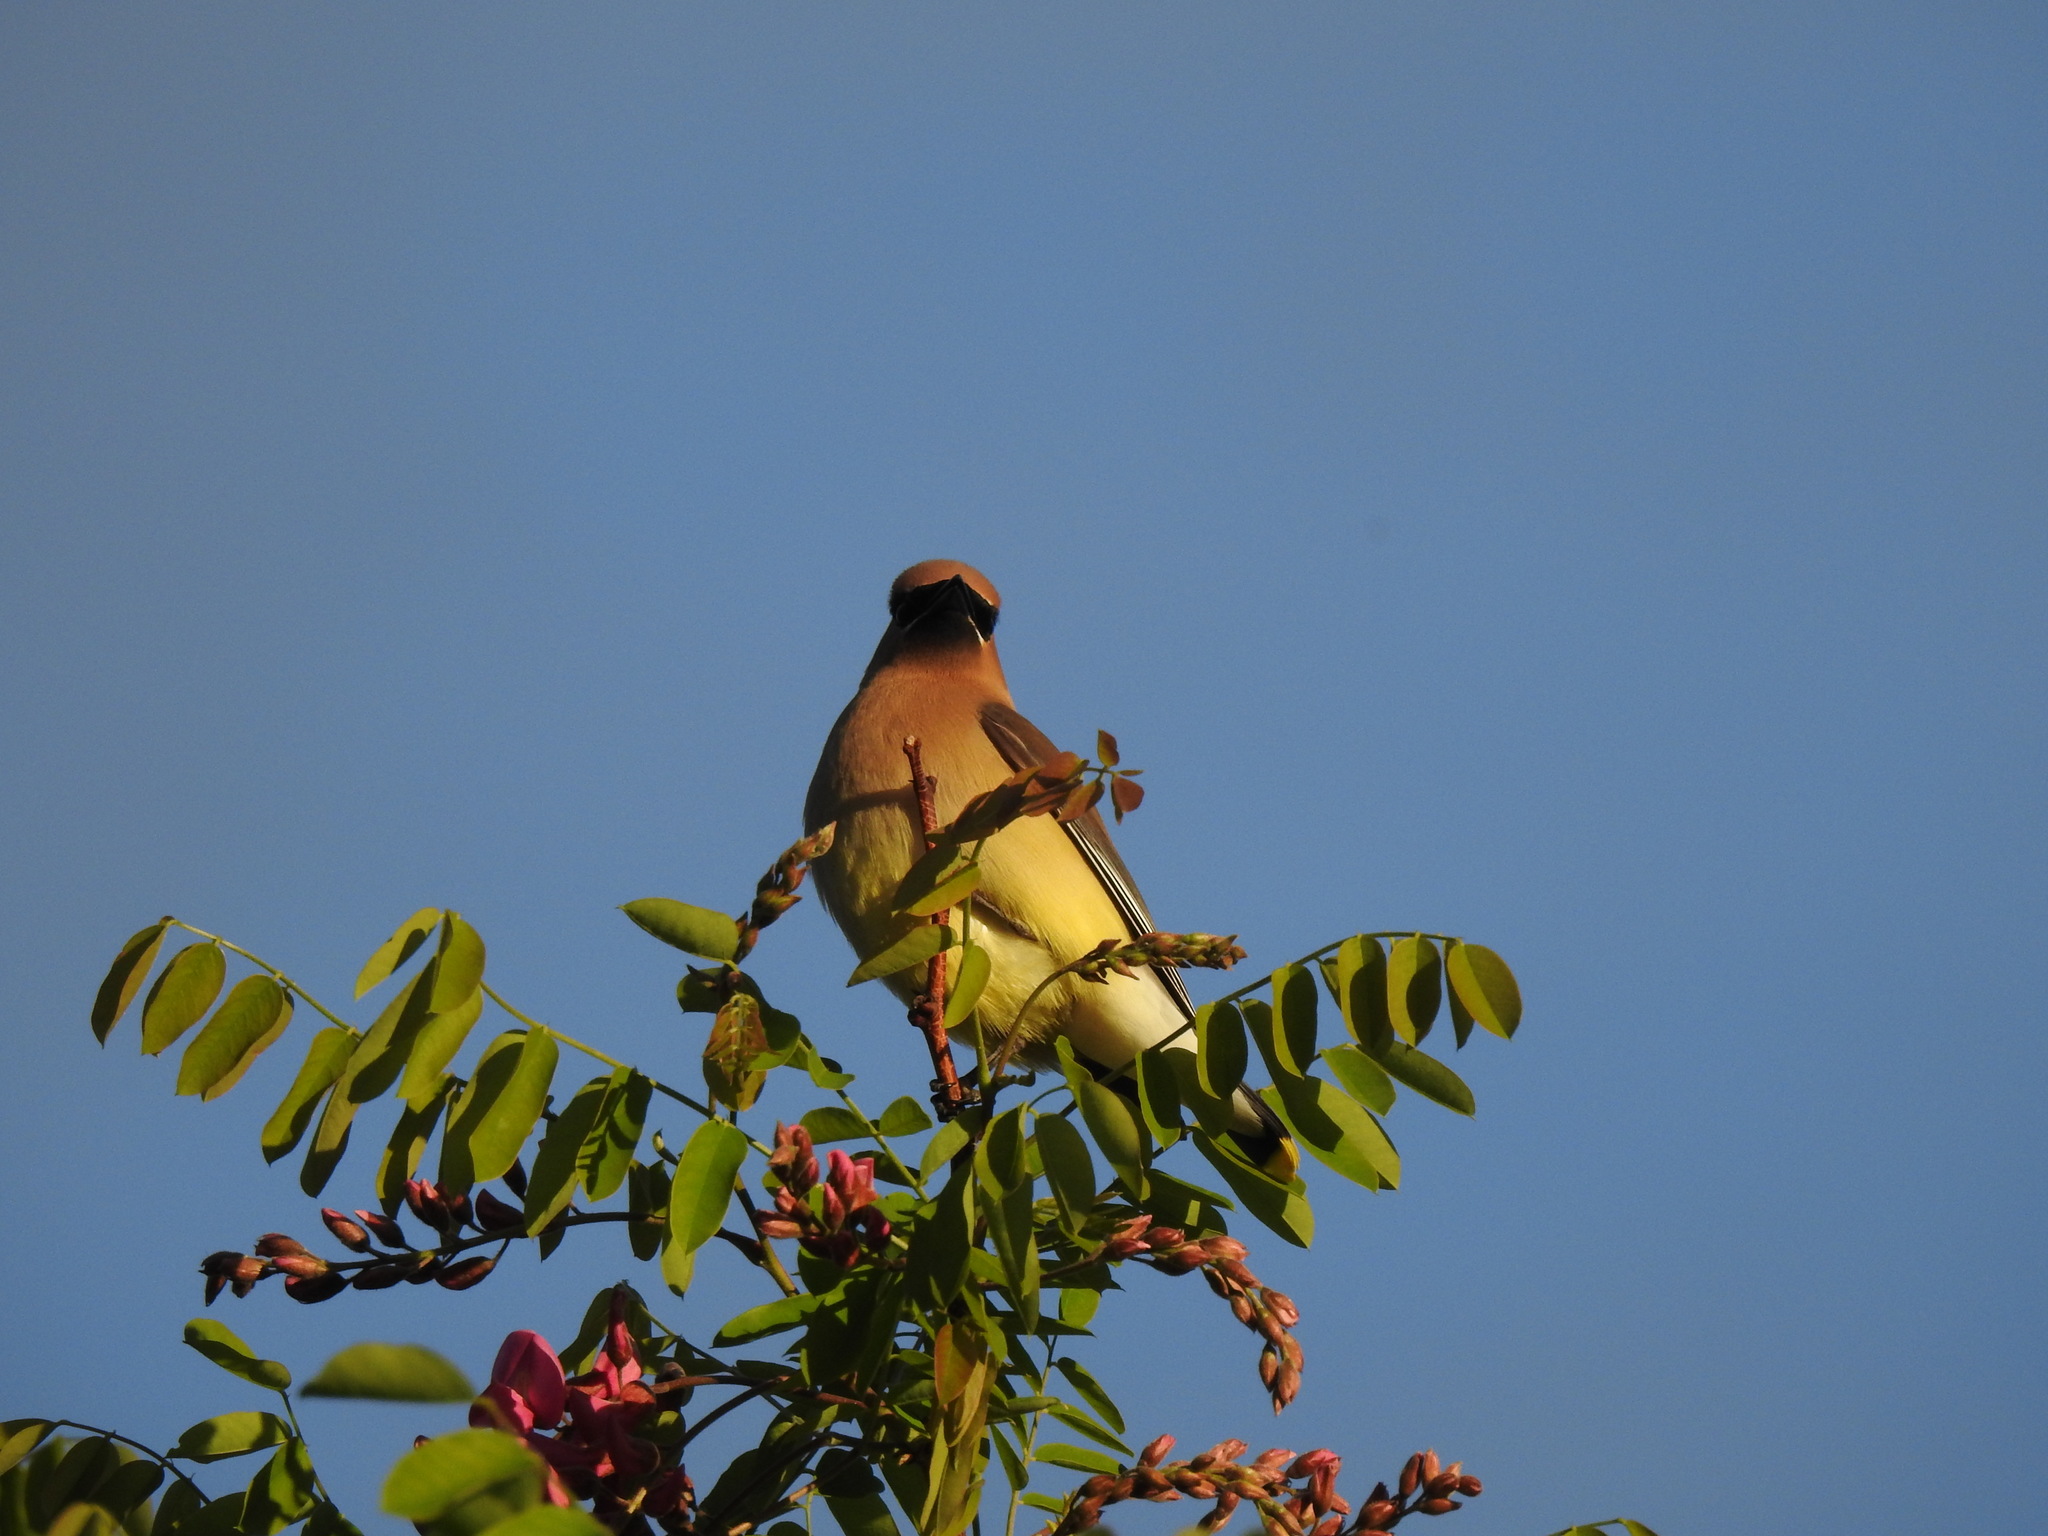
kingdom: Animalia
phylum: Chordata
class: Aves
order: Passeriformes
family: Bombycillidae
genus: Bombycilla
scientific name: Bombycilla cedrorum
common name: Cedar waxwing
